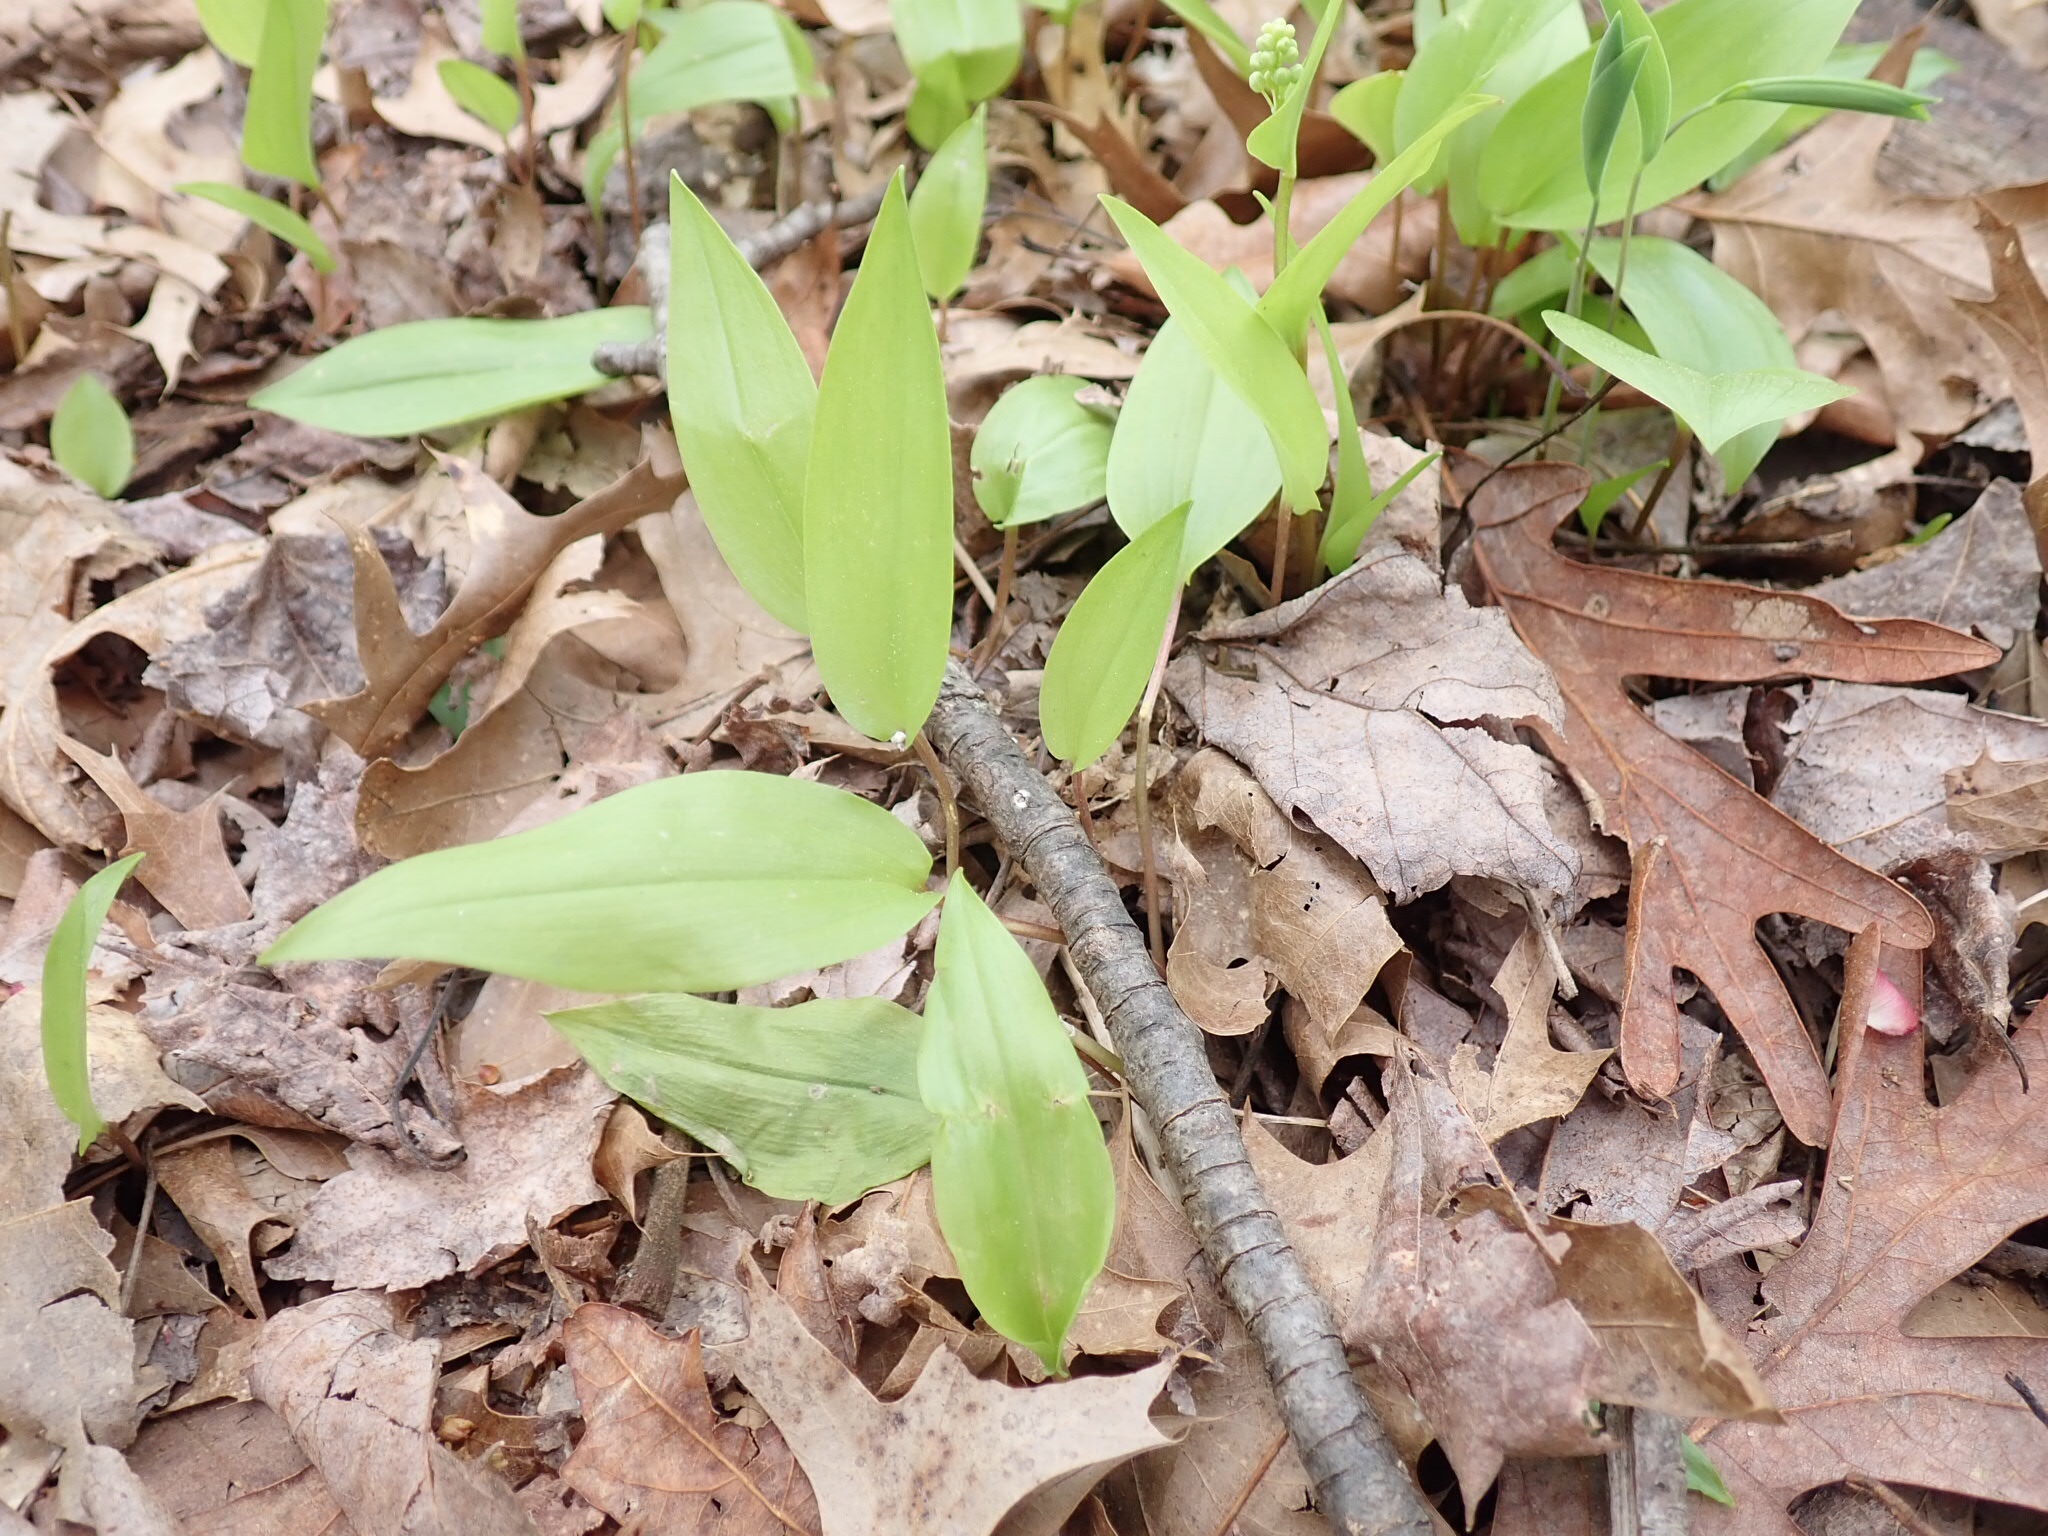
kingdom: Plantae
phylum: Tracheophyta
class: Liliopsida
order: Asparagales
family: Asparagaceae
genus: Maianthemum
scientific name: Maianthemum canadense
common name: False lily-of-the-valley
